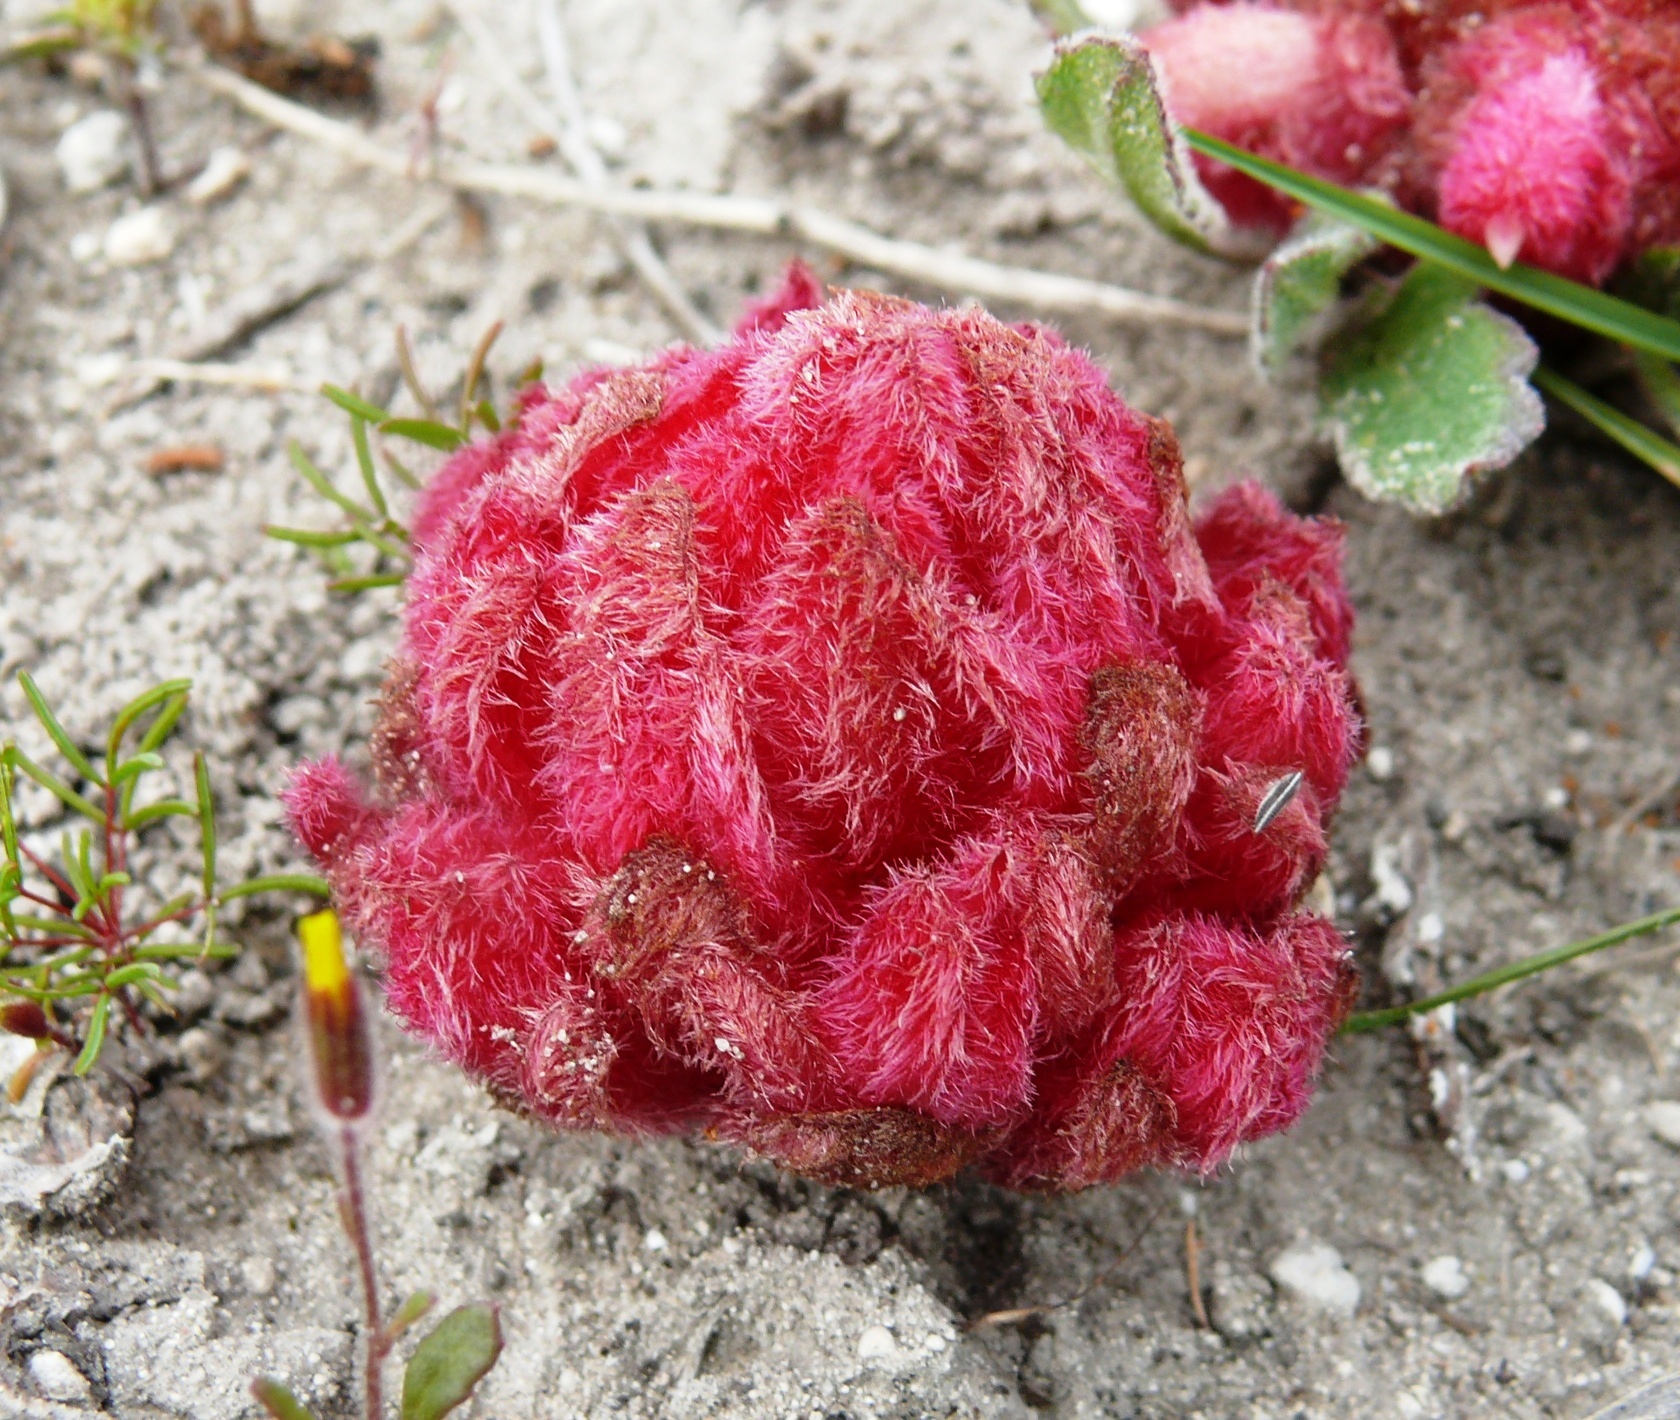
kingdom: Plantae
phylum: Tracheophyta
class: Magnoliopsida
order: Lamiales
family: Orobanchaceae
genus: Hyobanche
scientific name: Hyobanche sanguinea
